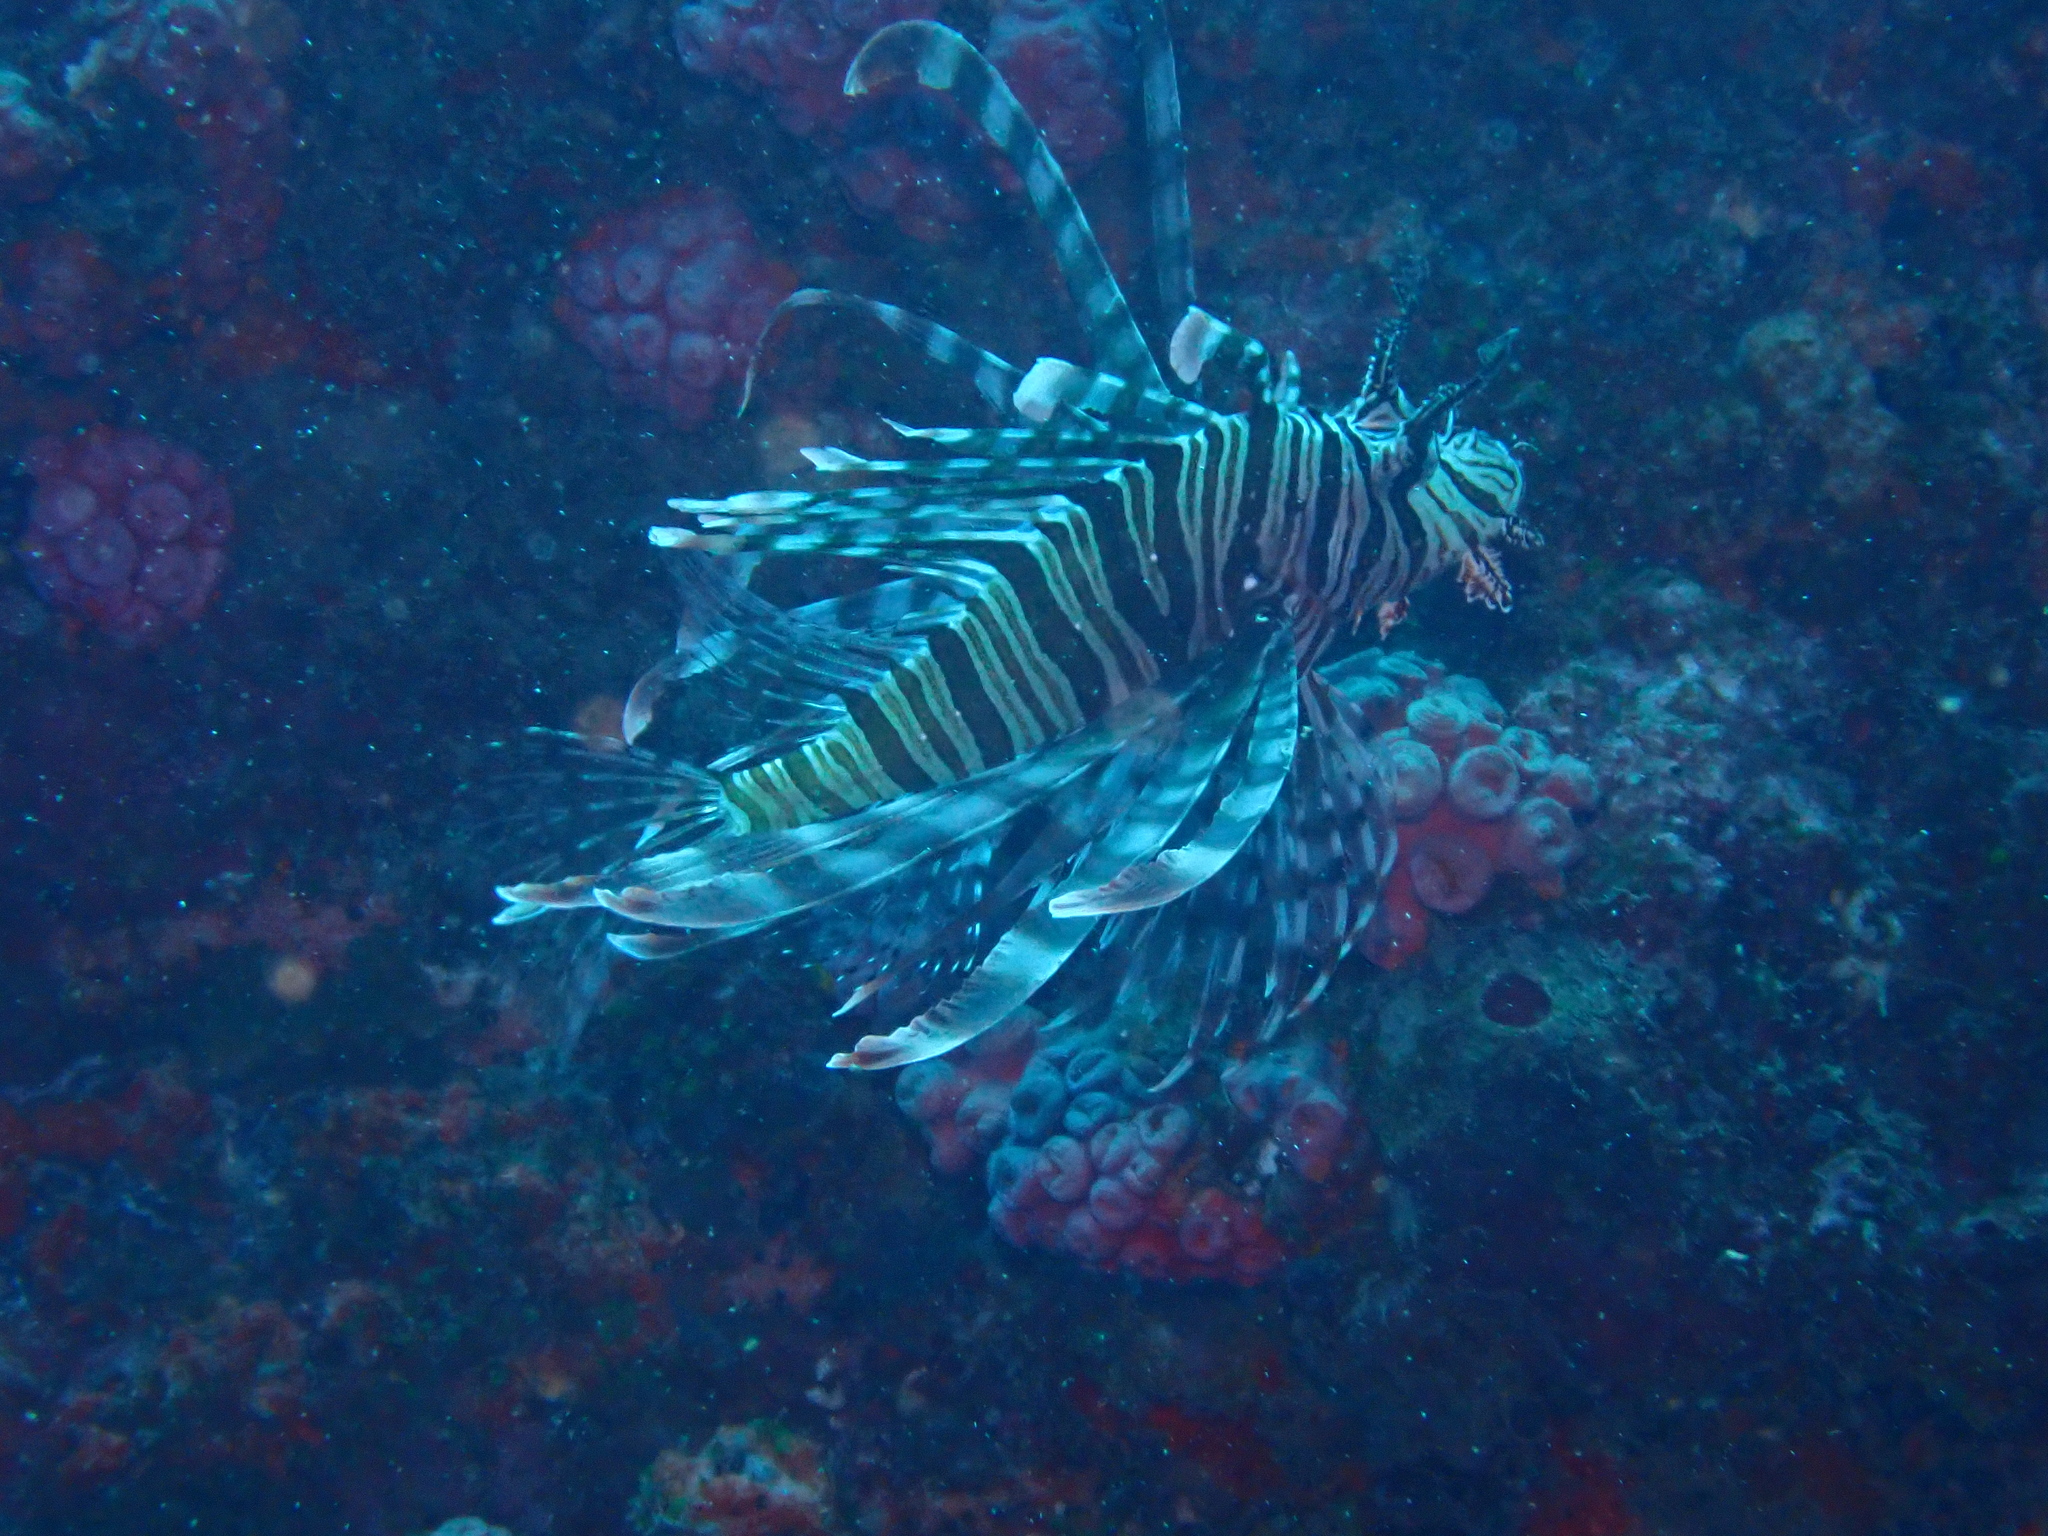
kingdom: Animalia
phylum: Chordata
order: Scorpaeniformes
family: Scorpaenidae
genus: Pterois
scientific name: Pterois volitans
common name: Lionfish
